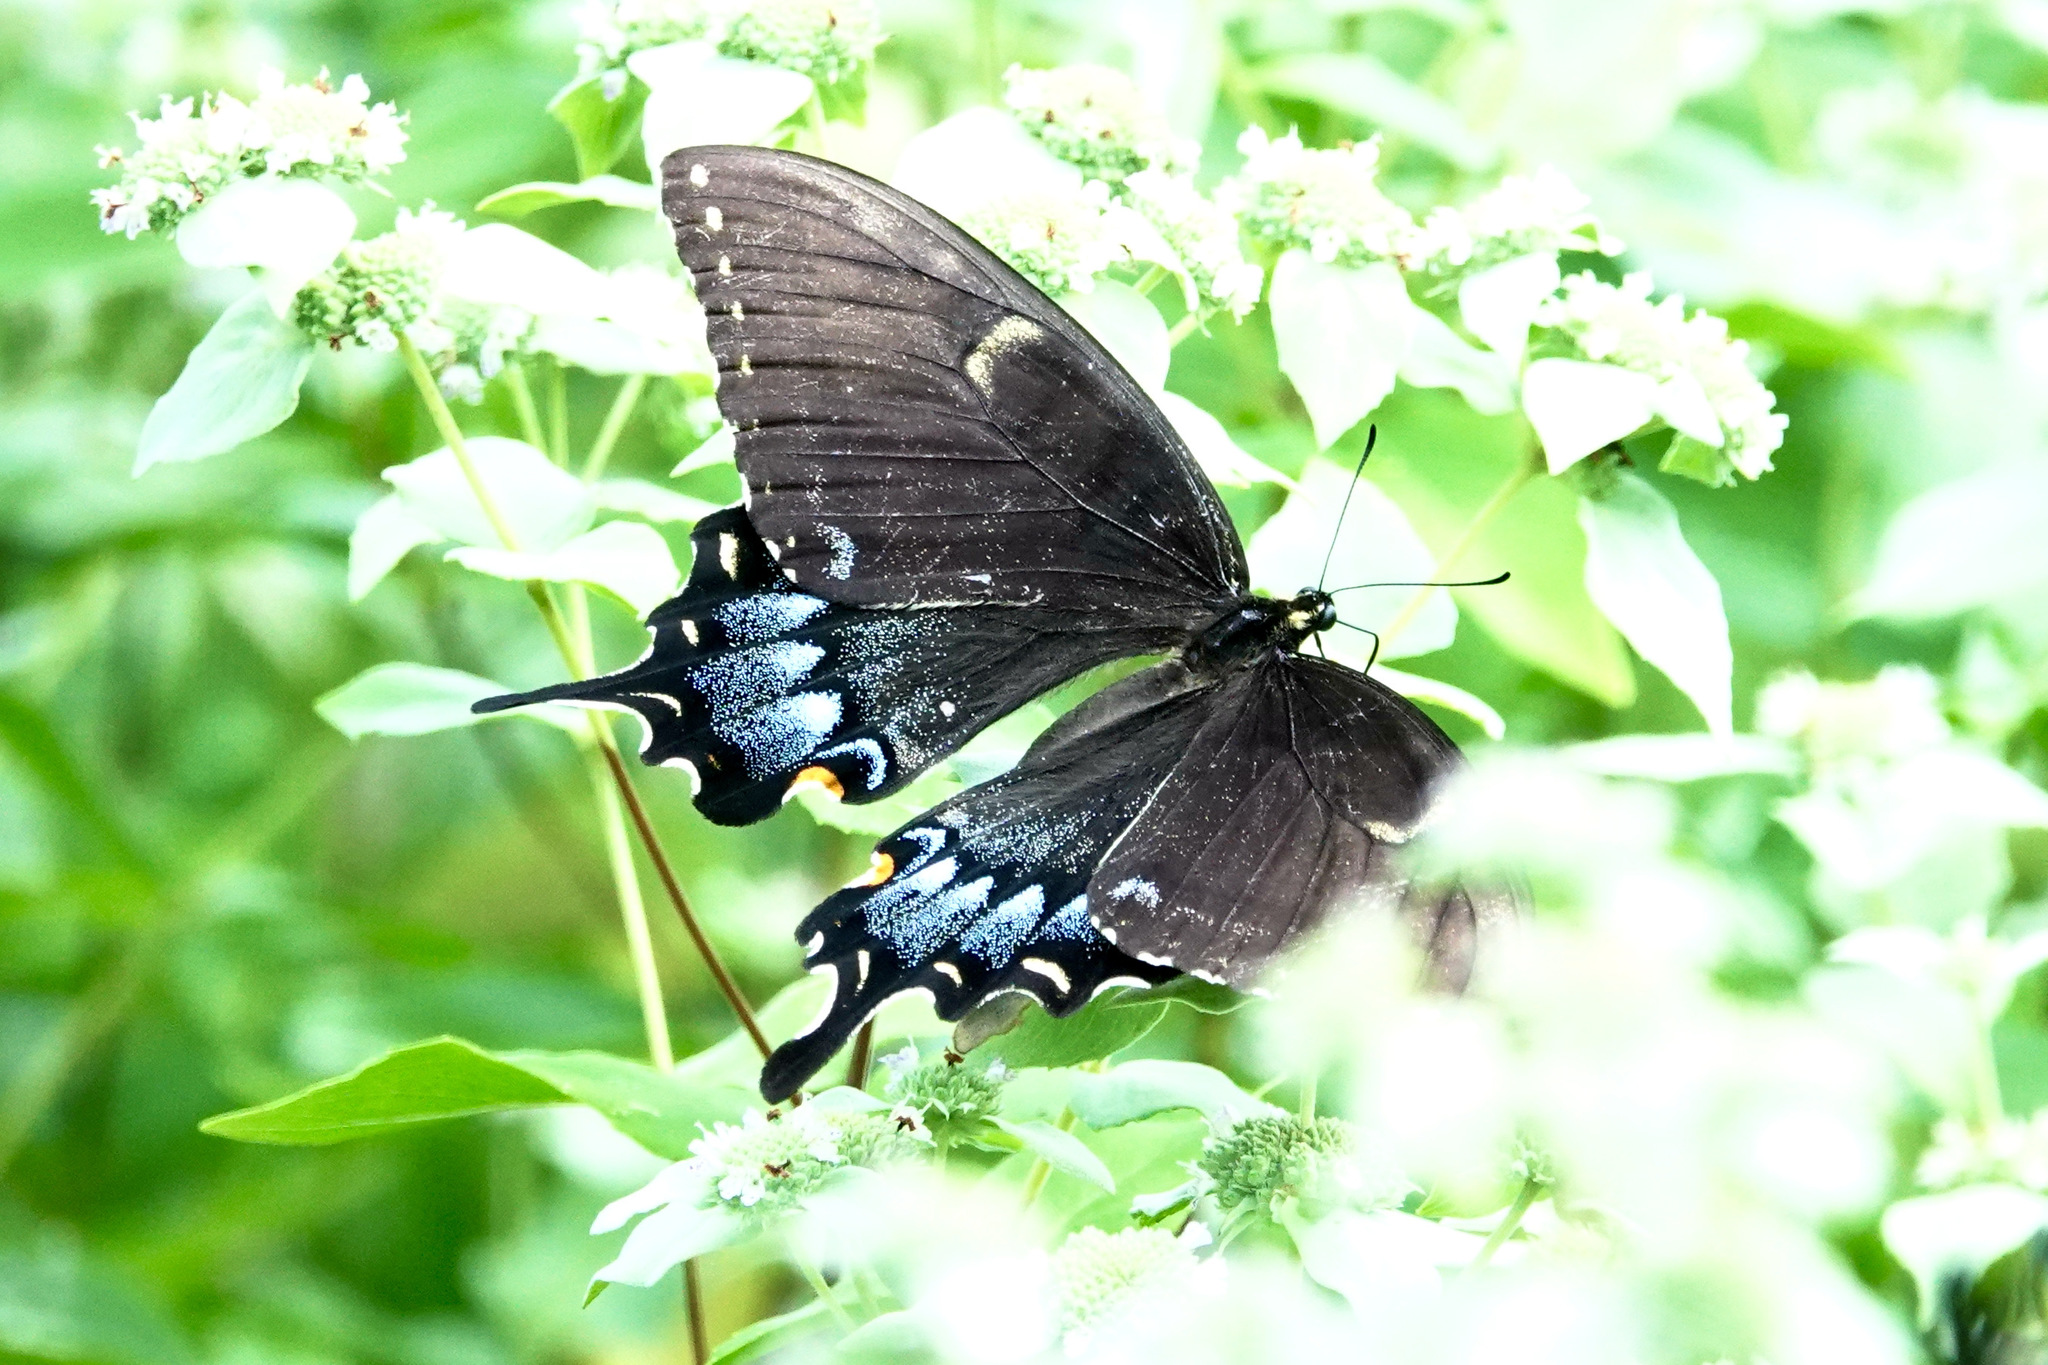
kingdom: Animalia
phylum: Arthropoda
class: Insecta
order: Lepidoptera
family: Papilionidae
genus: Papilio
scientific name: Papilio glaucus
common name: Tiger swallowtail
